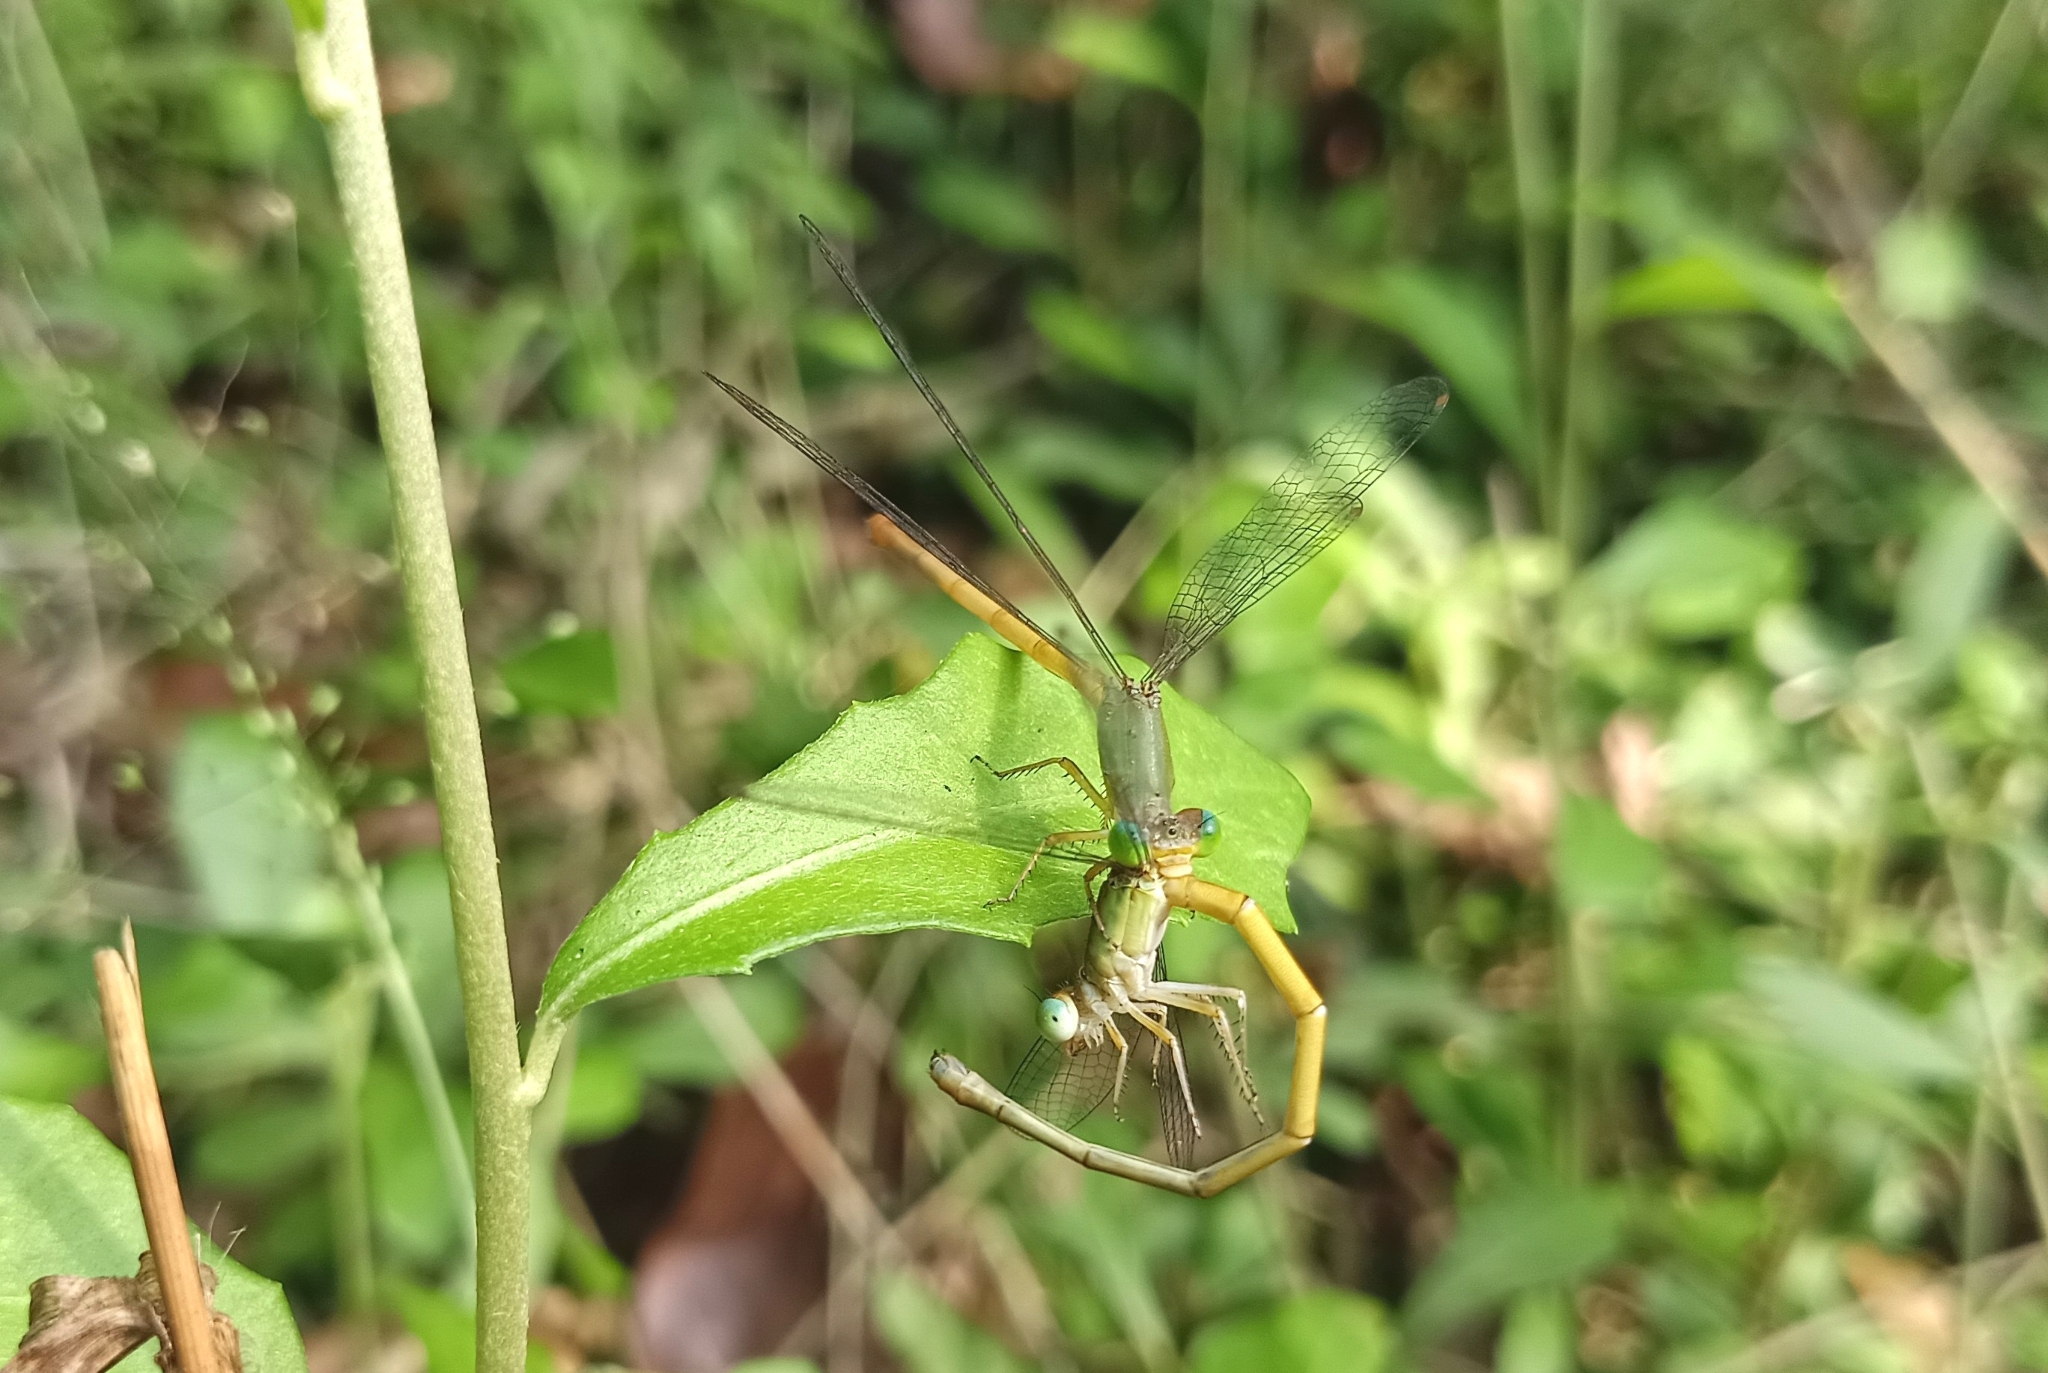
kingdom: Animalia
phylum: Arthropoda
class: Insecta
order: Odonata
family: Coenagrionidae
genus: Ceriagrion
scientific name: Ceriagrion coromandelianum
